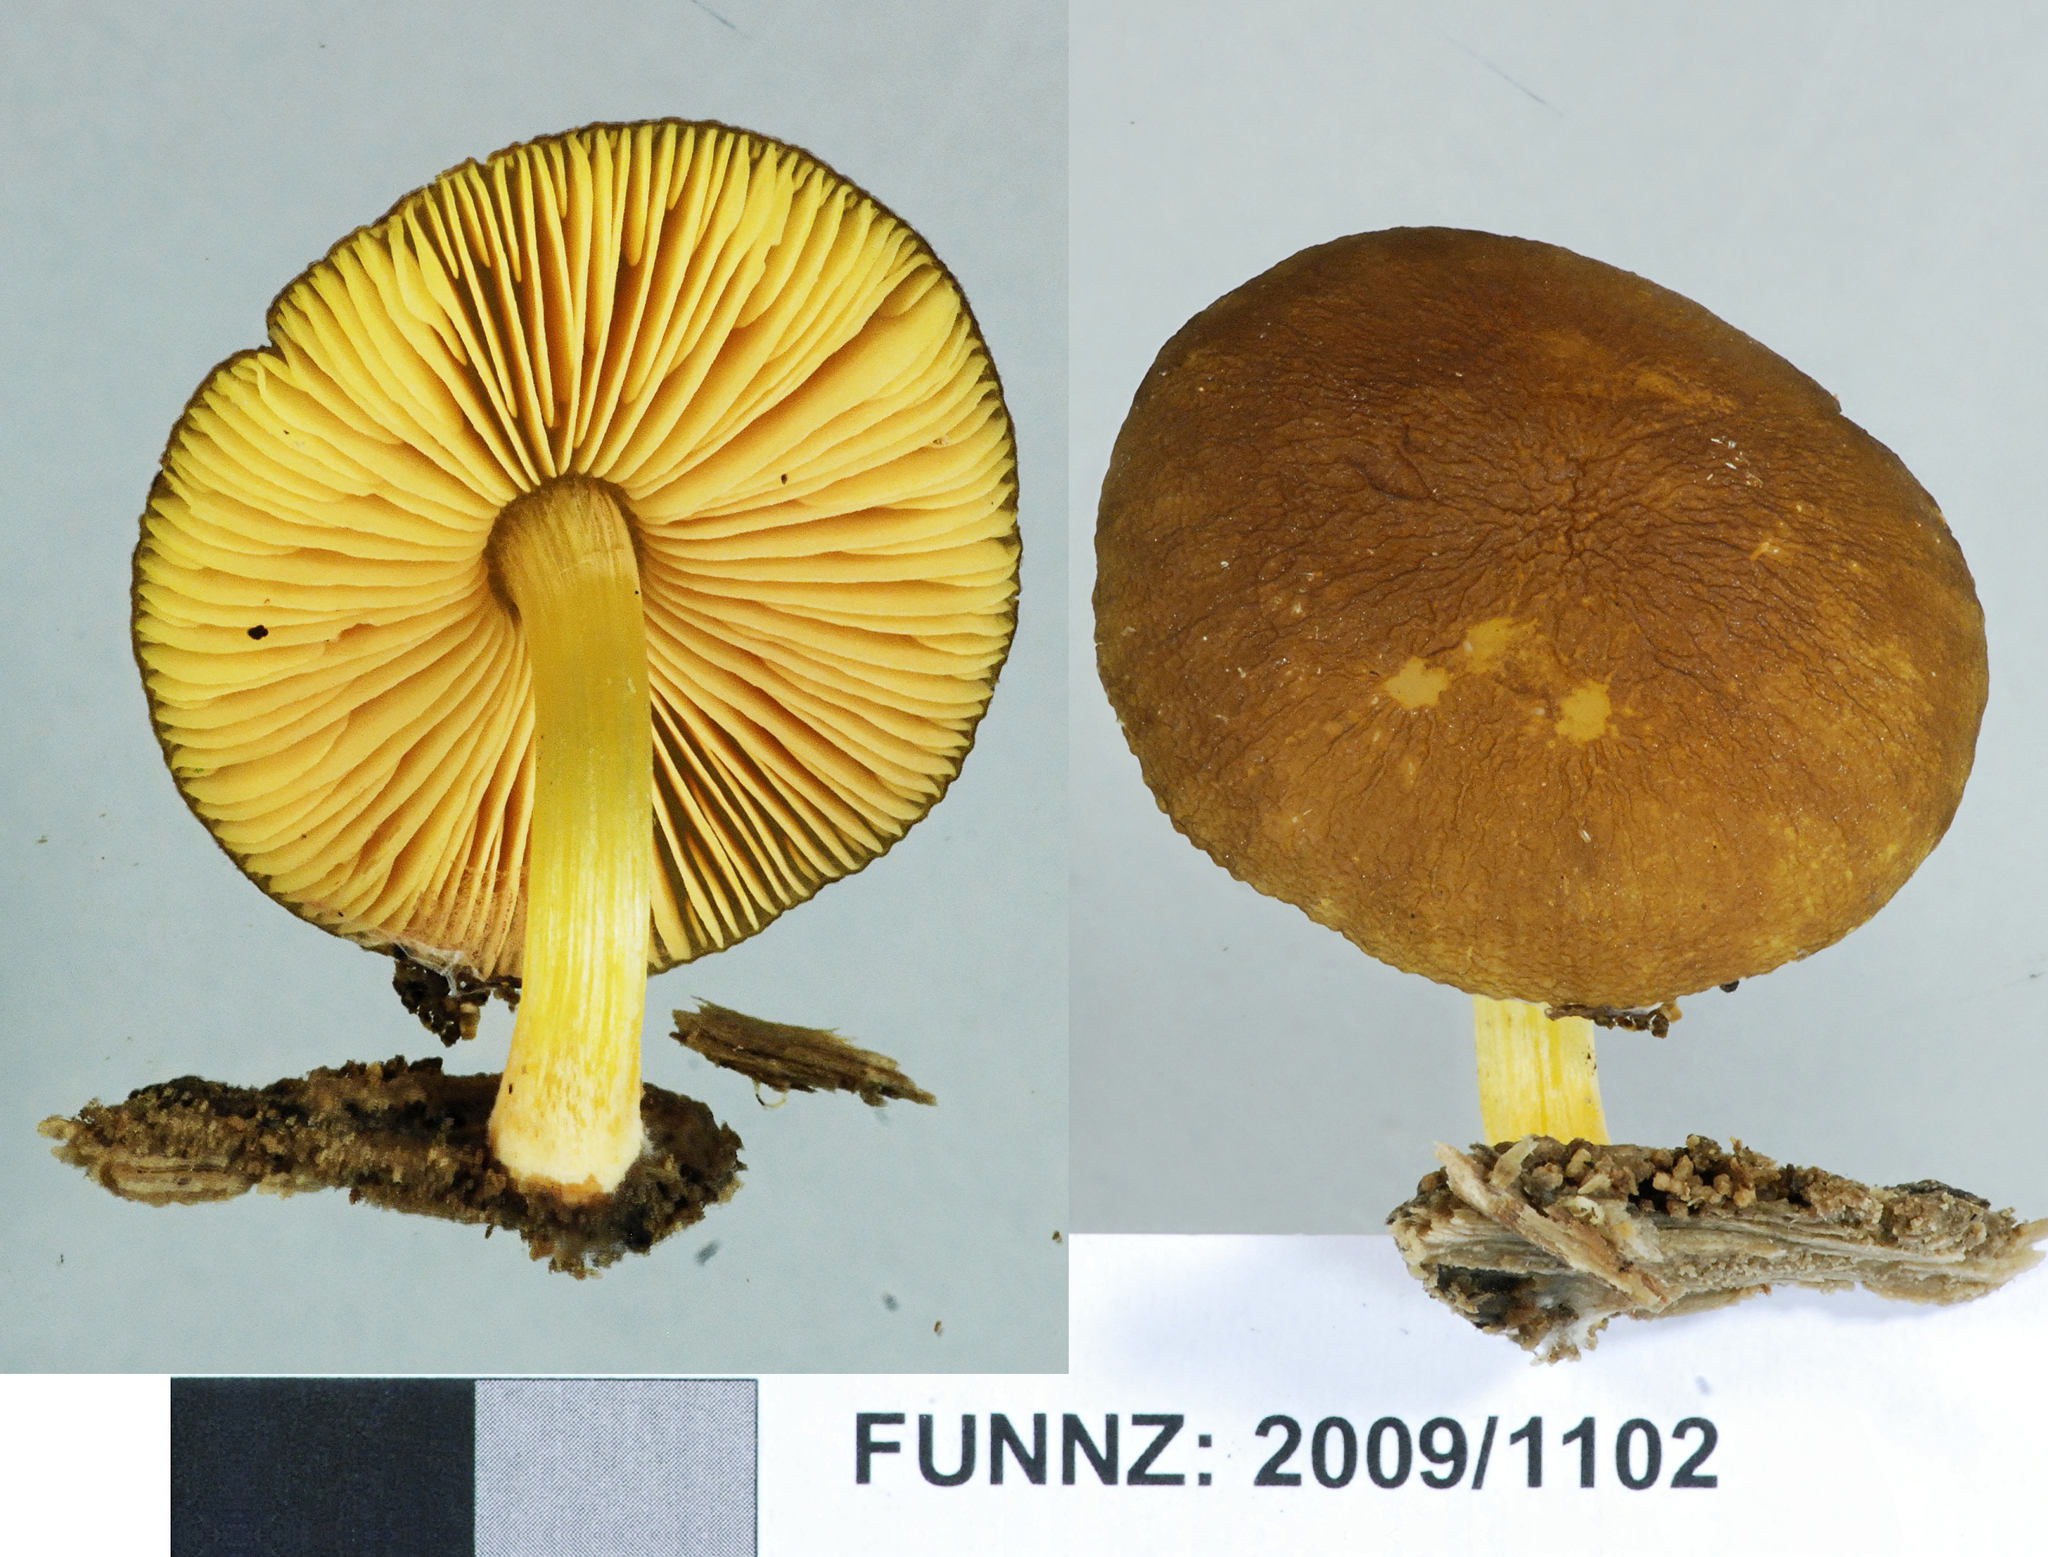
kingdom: Fungi
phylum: Basidiomycota
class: Agaricomycetes
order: Agaricales
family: Pluteaceae
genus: Pluteus
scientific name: Pluteus pauperculus
